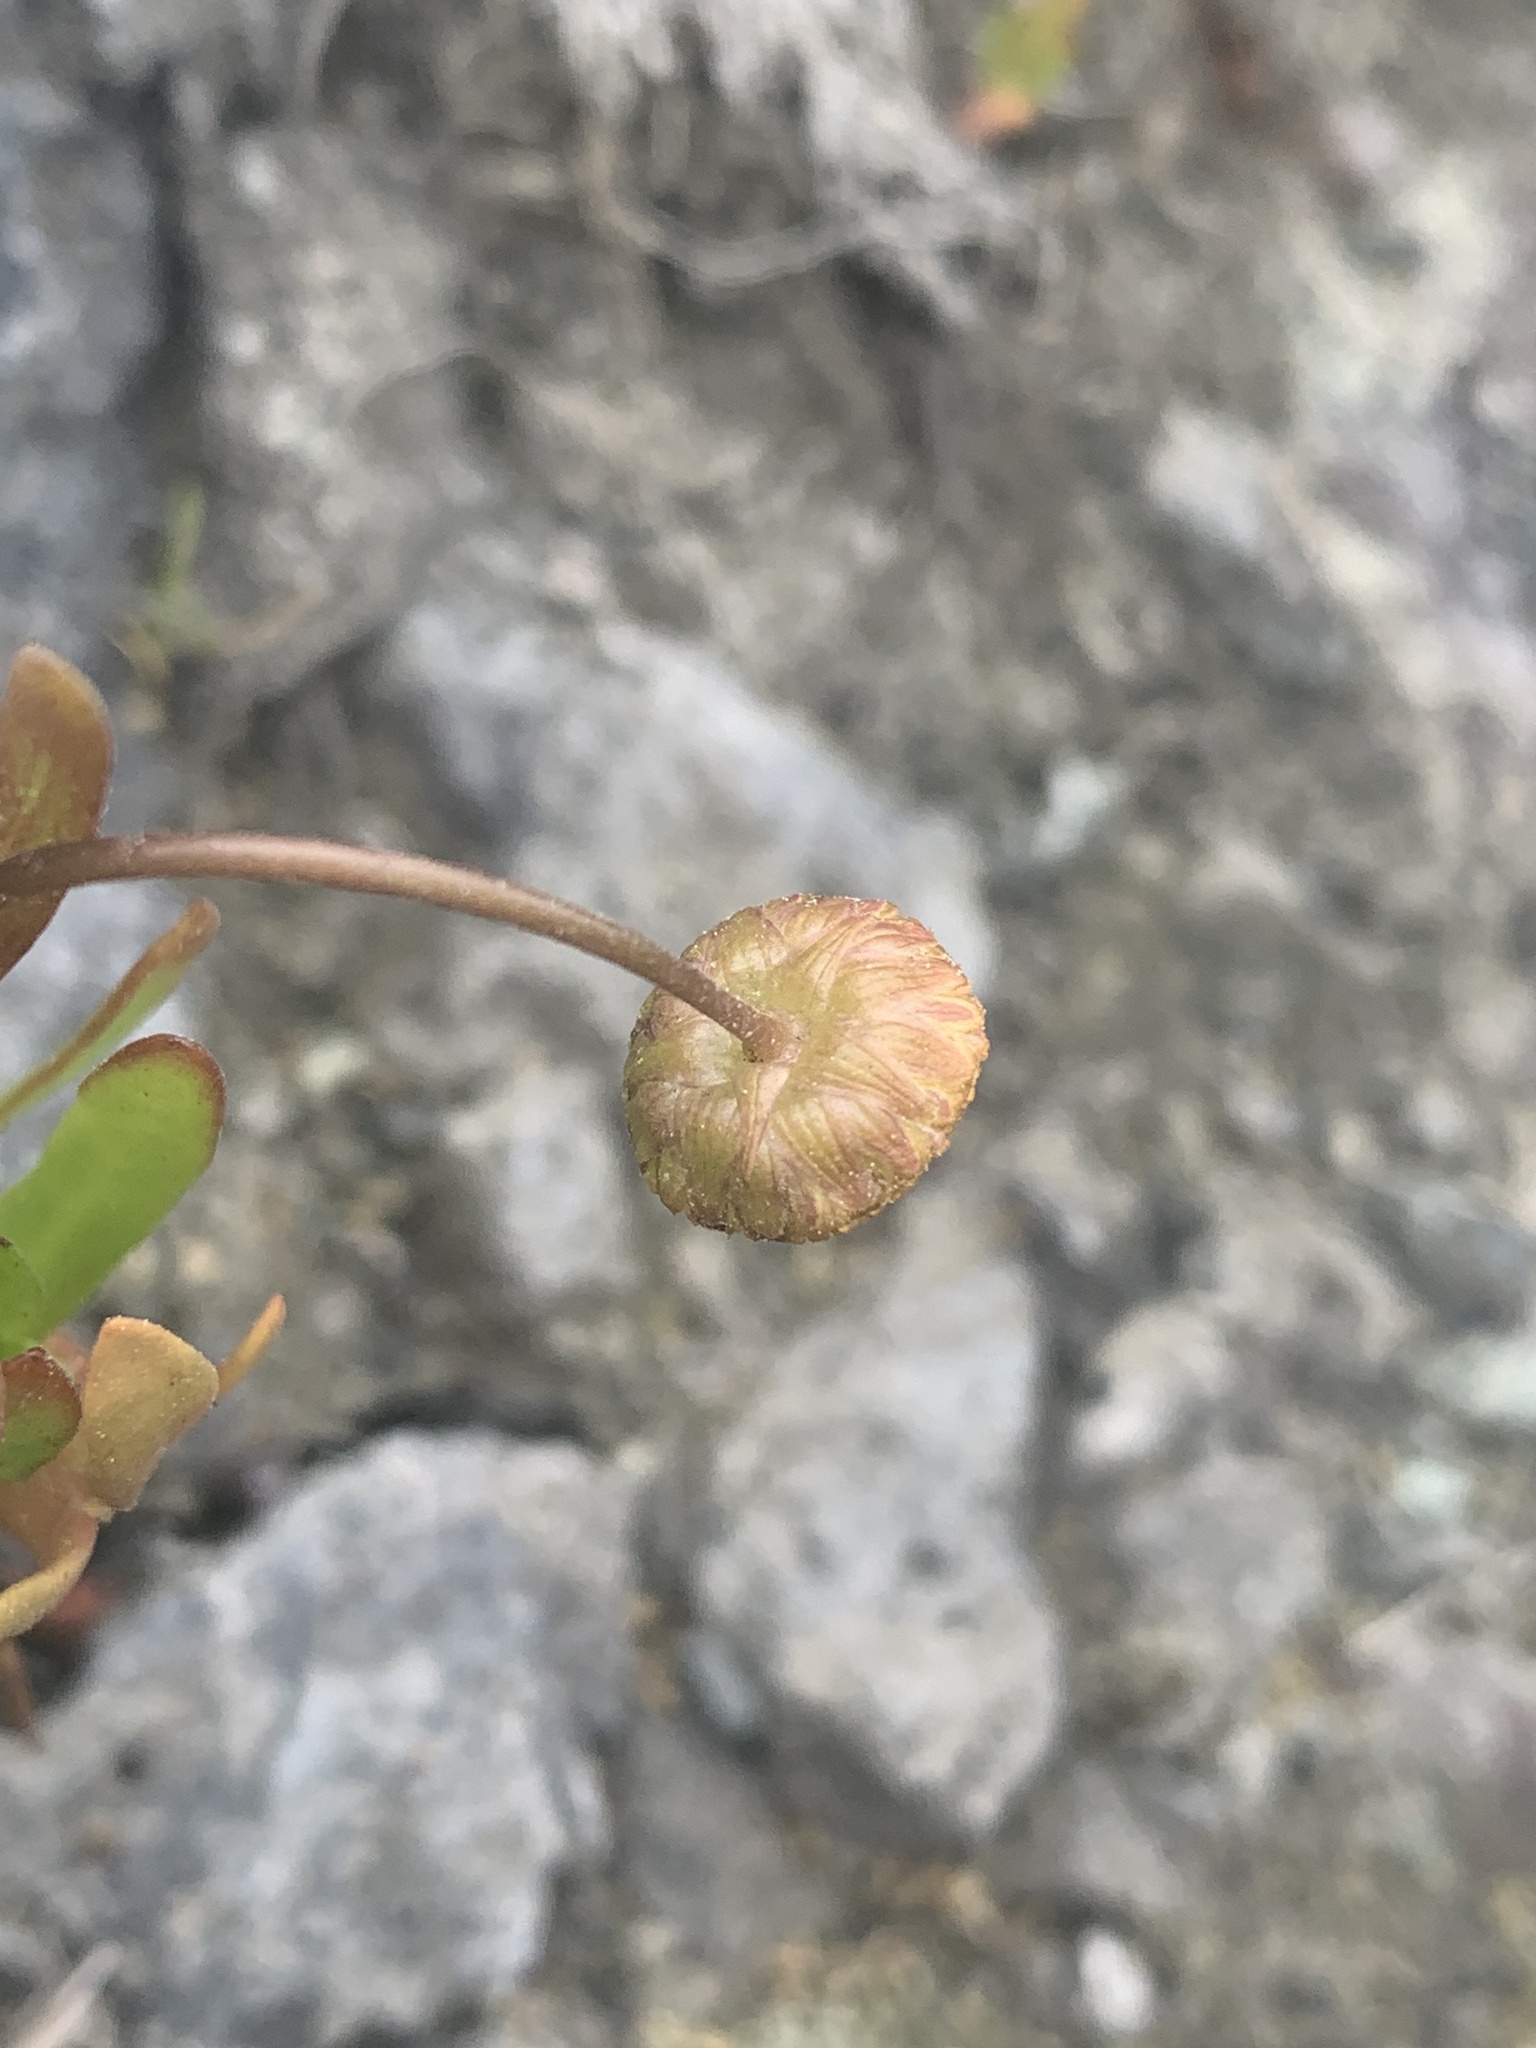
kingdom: Plantae
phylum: Tracheophyta
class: Magnoliopsida
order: Asterales
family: Asteraceae
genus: Cotula
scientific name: Cotula coronopifolia
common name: Buttonweed
